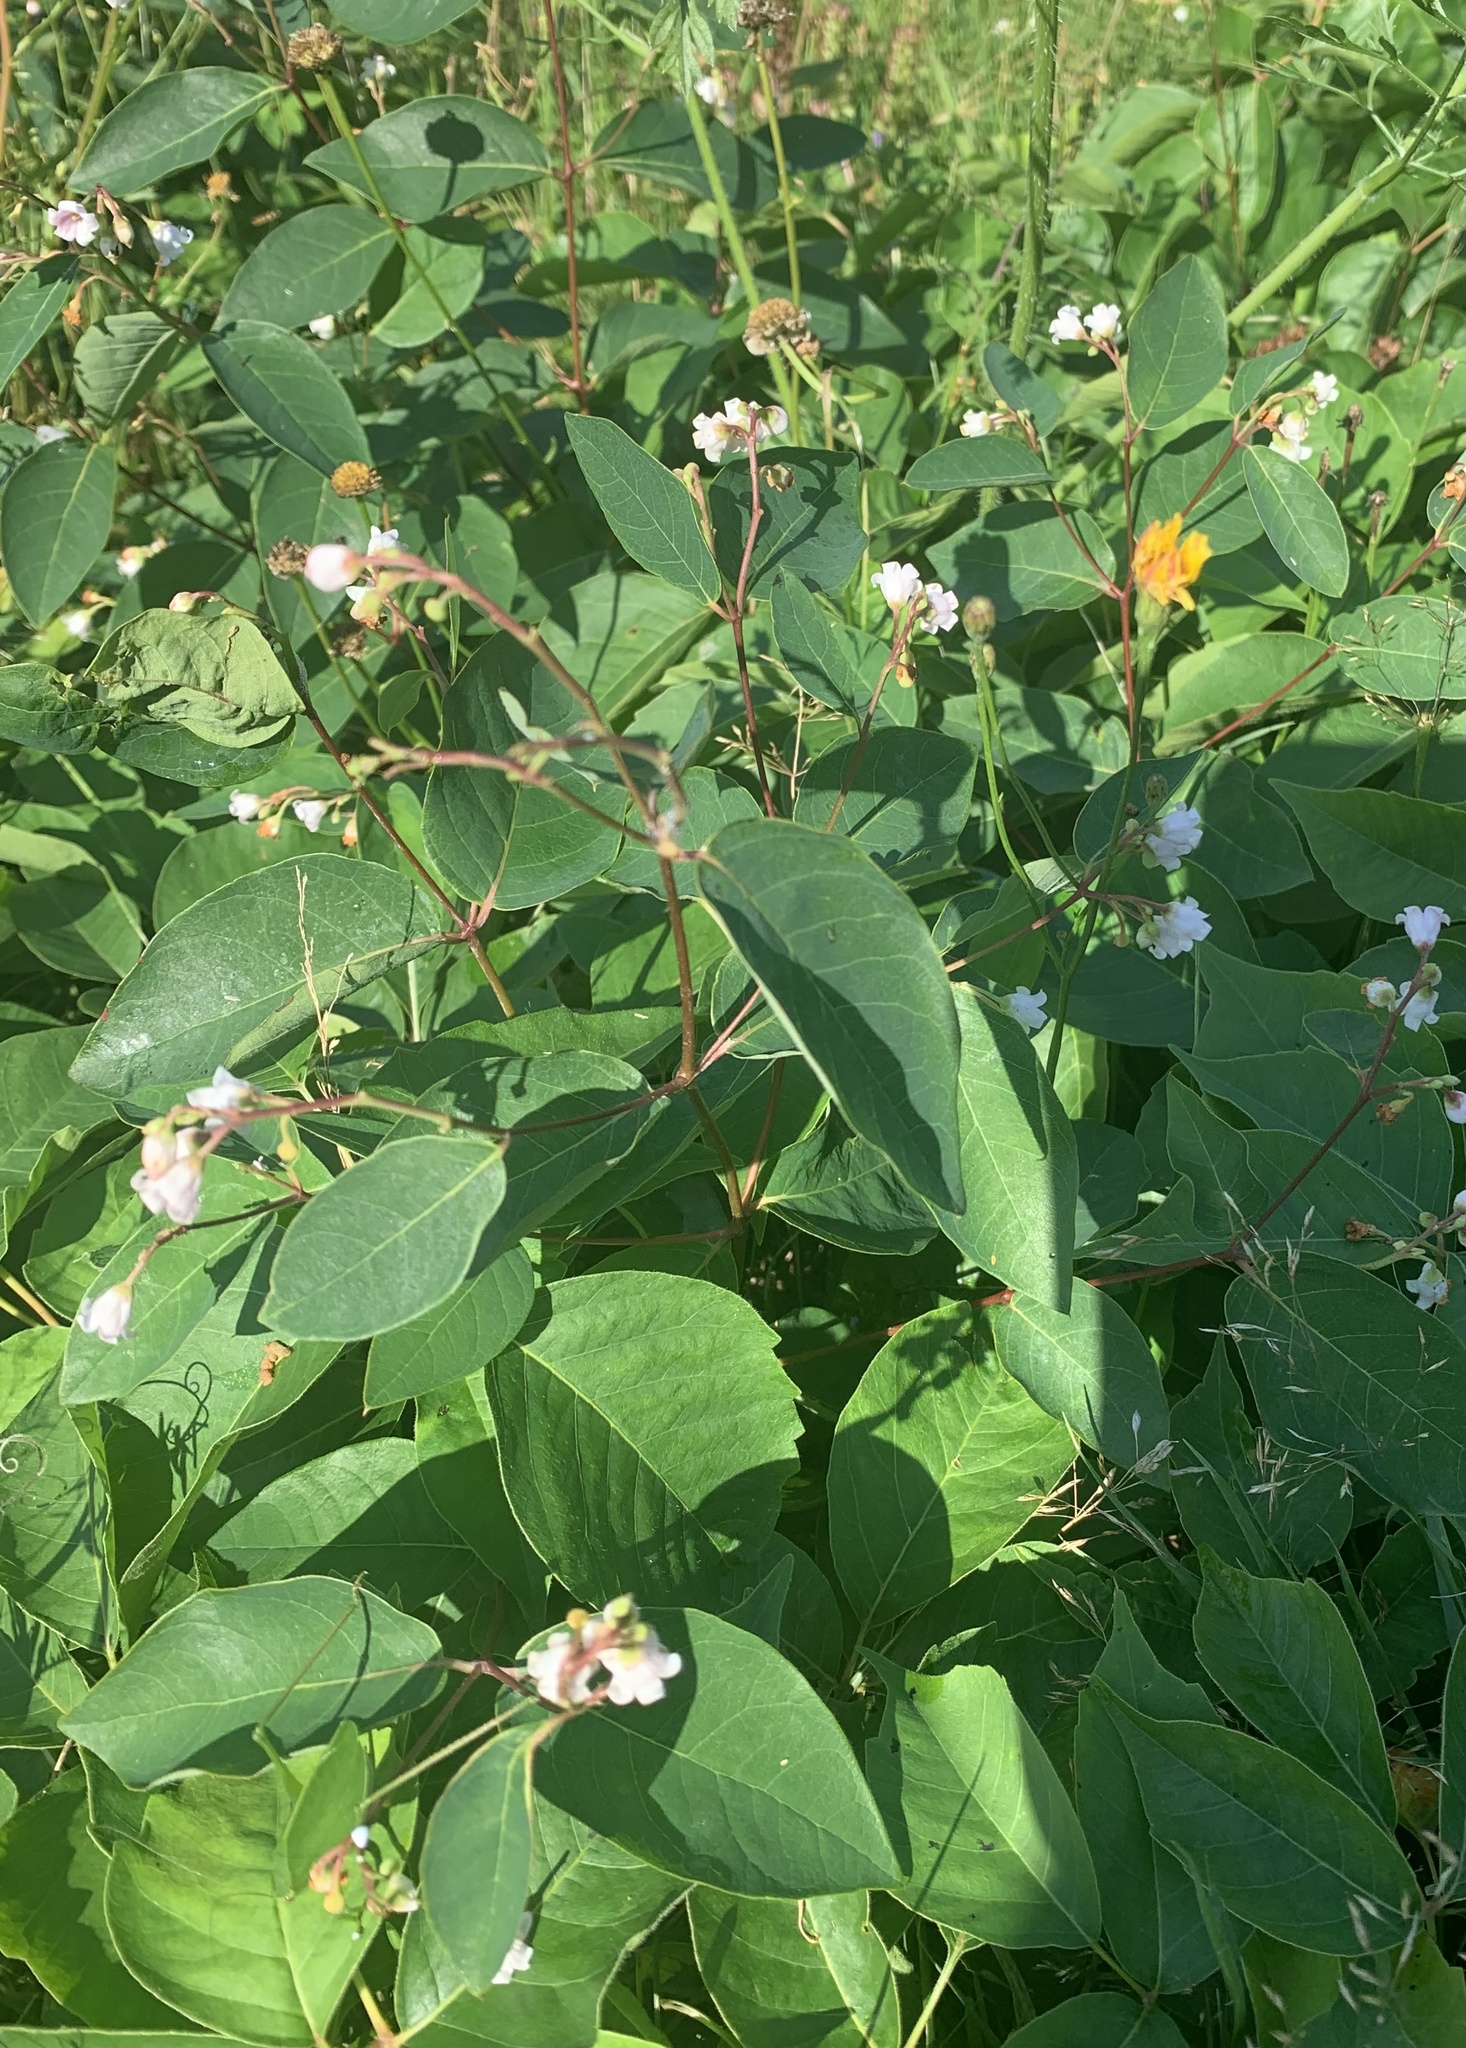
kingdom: Plantae
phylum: Tracheophyta
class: Magnoliopsida
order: Gentianales
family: Apocynaceae
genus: Apocynum
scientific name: Apocynum androsaemifolium
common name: Spreading dogbane
